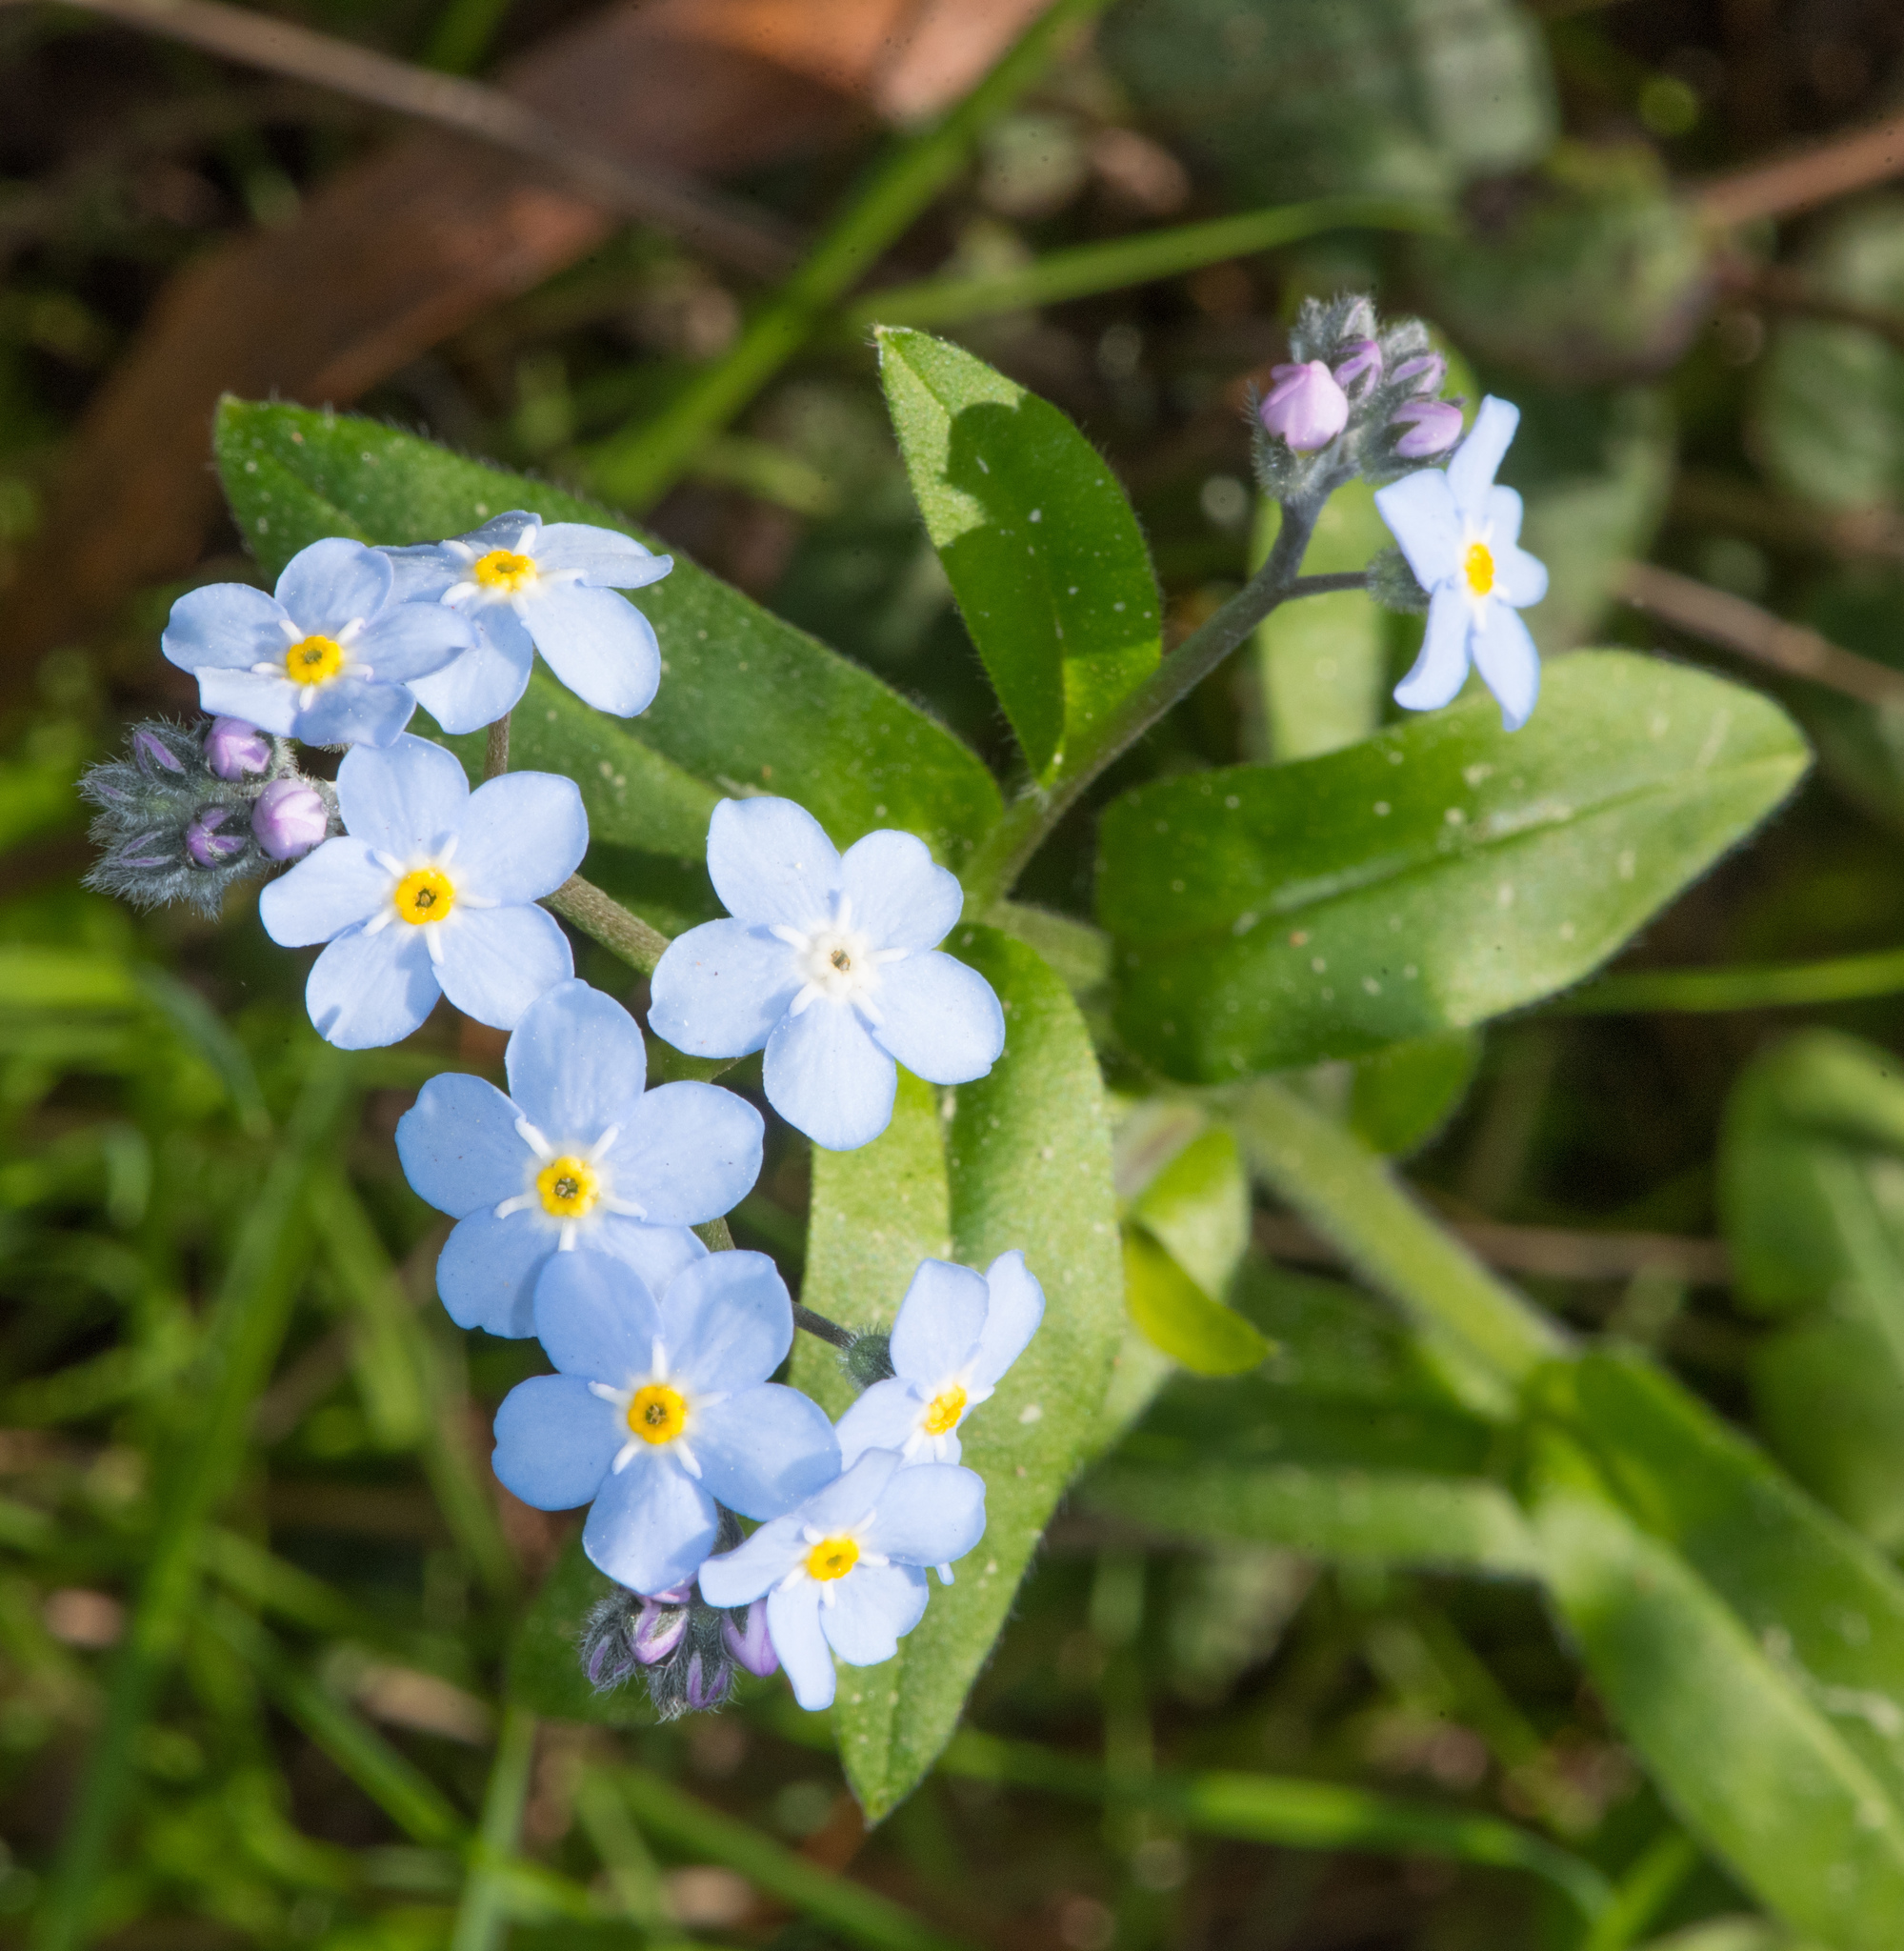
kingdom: Plantae
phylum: Tracheophyta
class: Magnoliopsida
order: Boraginales
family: Boraginaceae
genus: Myosotis
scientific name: Myosotis latifolia
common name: Broadleaf forget-me-not
